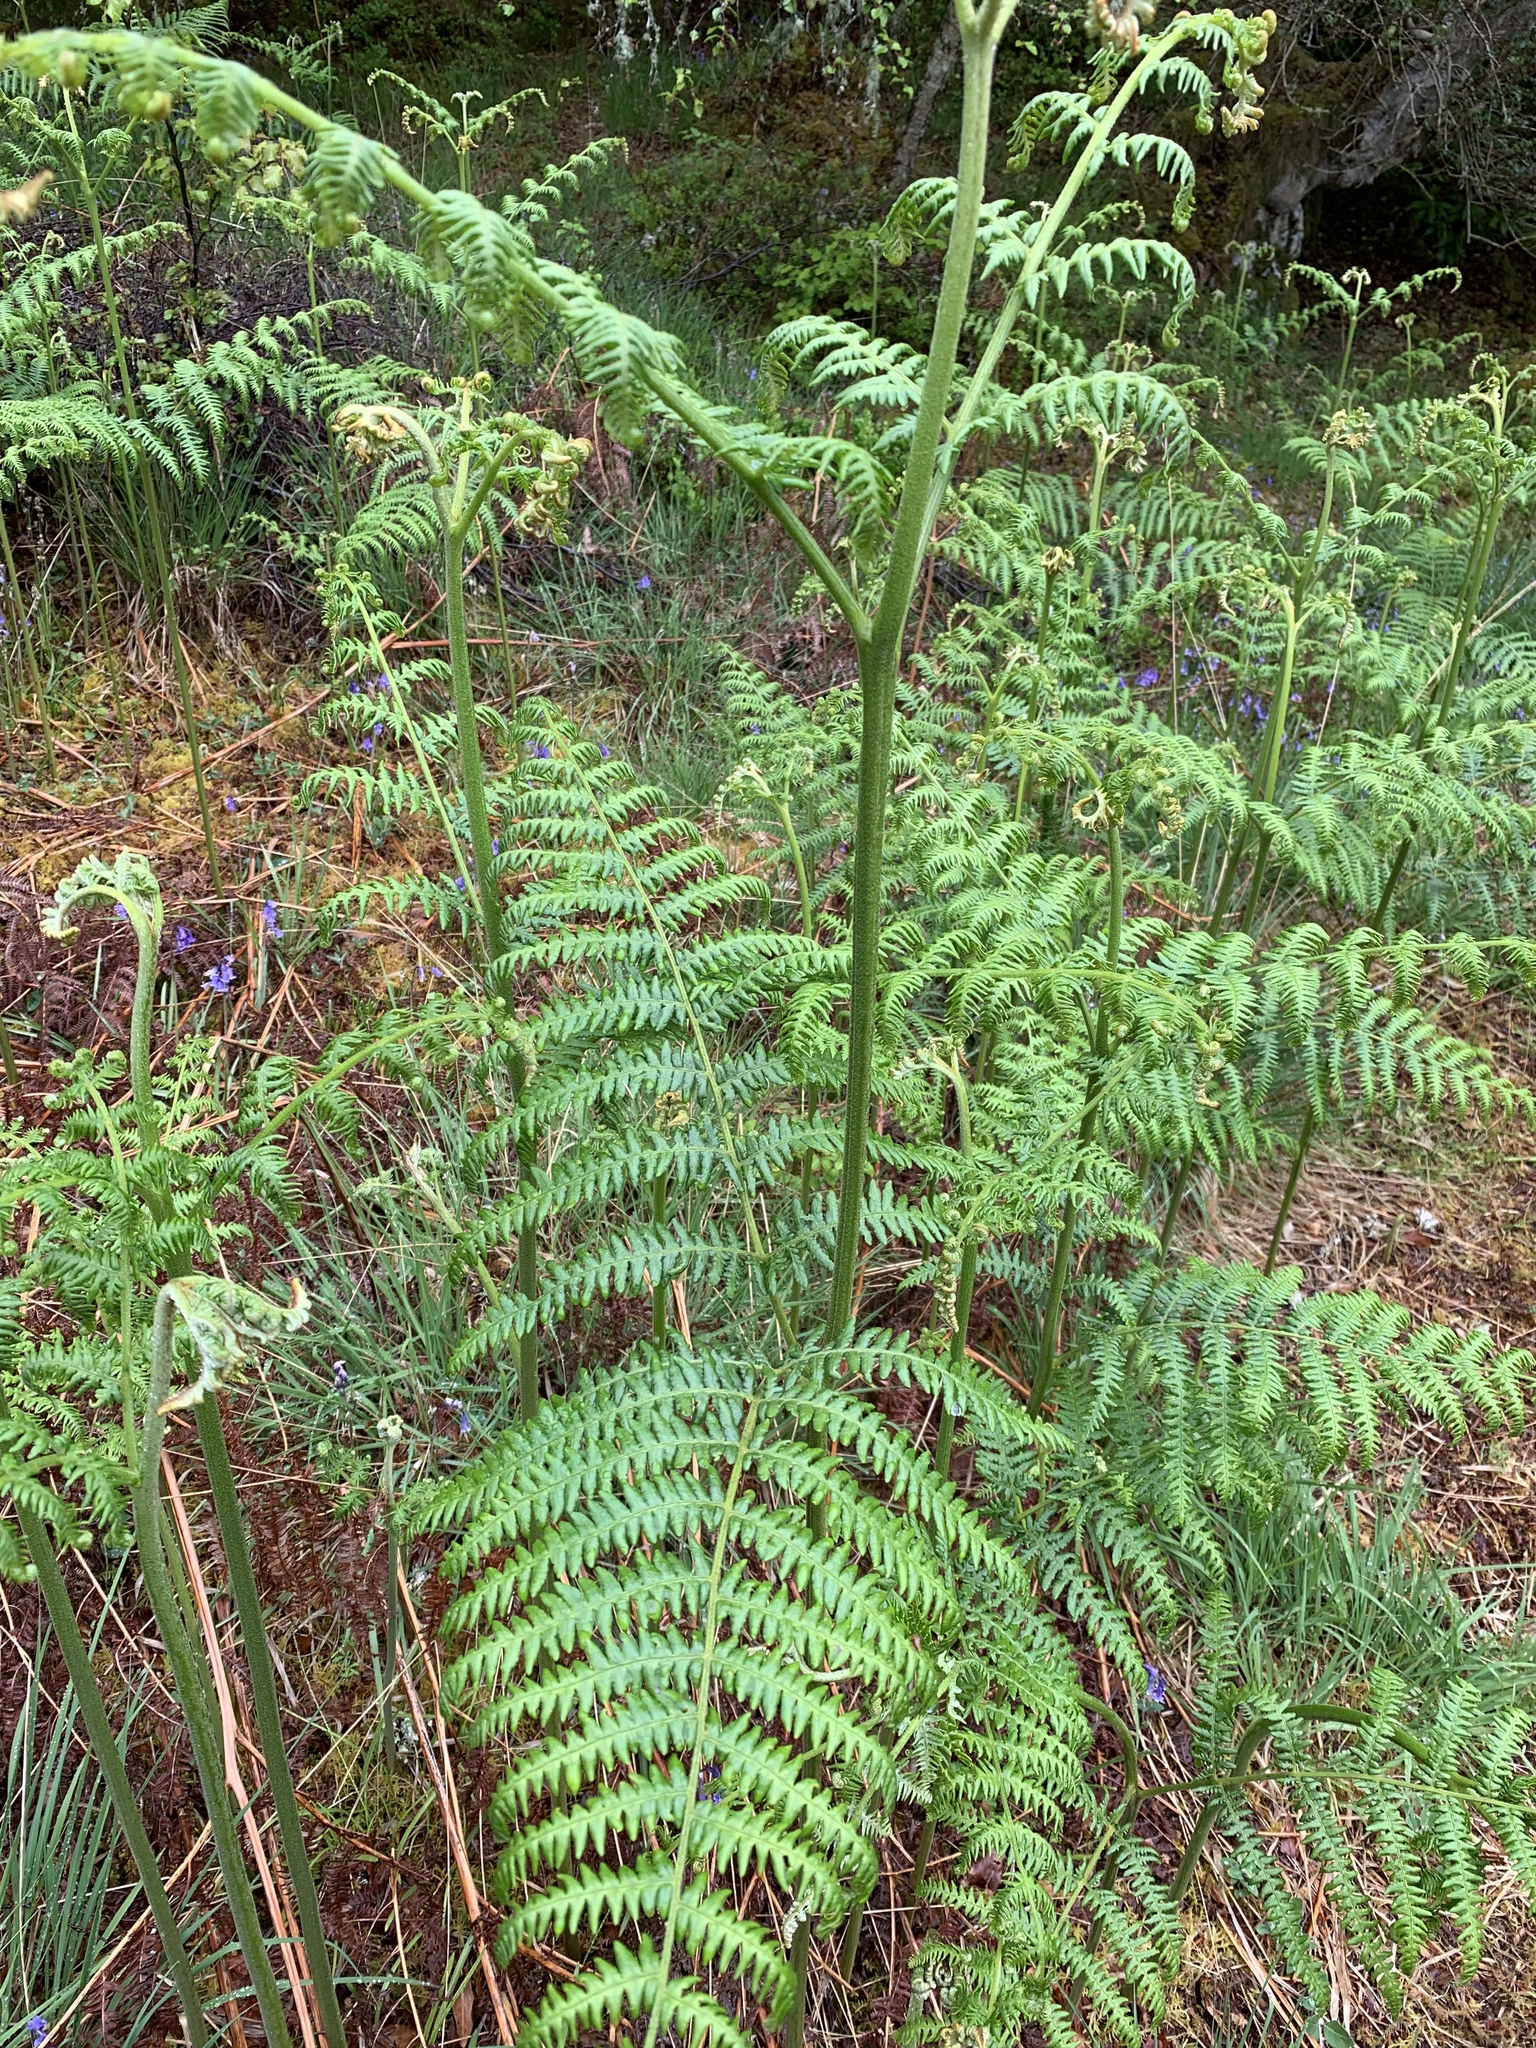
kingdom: Plantae
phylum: Tracheophyta
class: Polypodiopsida
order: Polypodiales
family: Dennstaedtiaceae
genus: Pteridium
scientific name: Pteridium aquilinum
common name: Bracken
